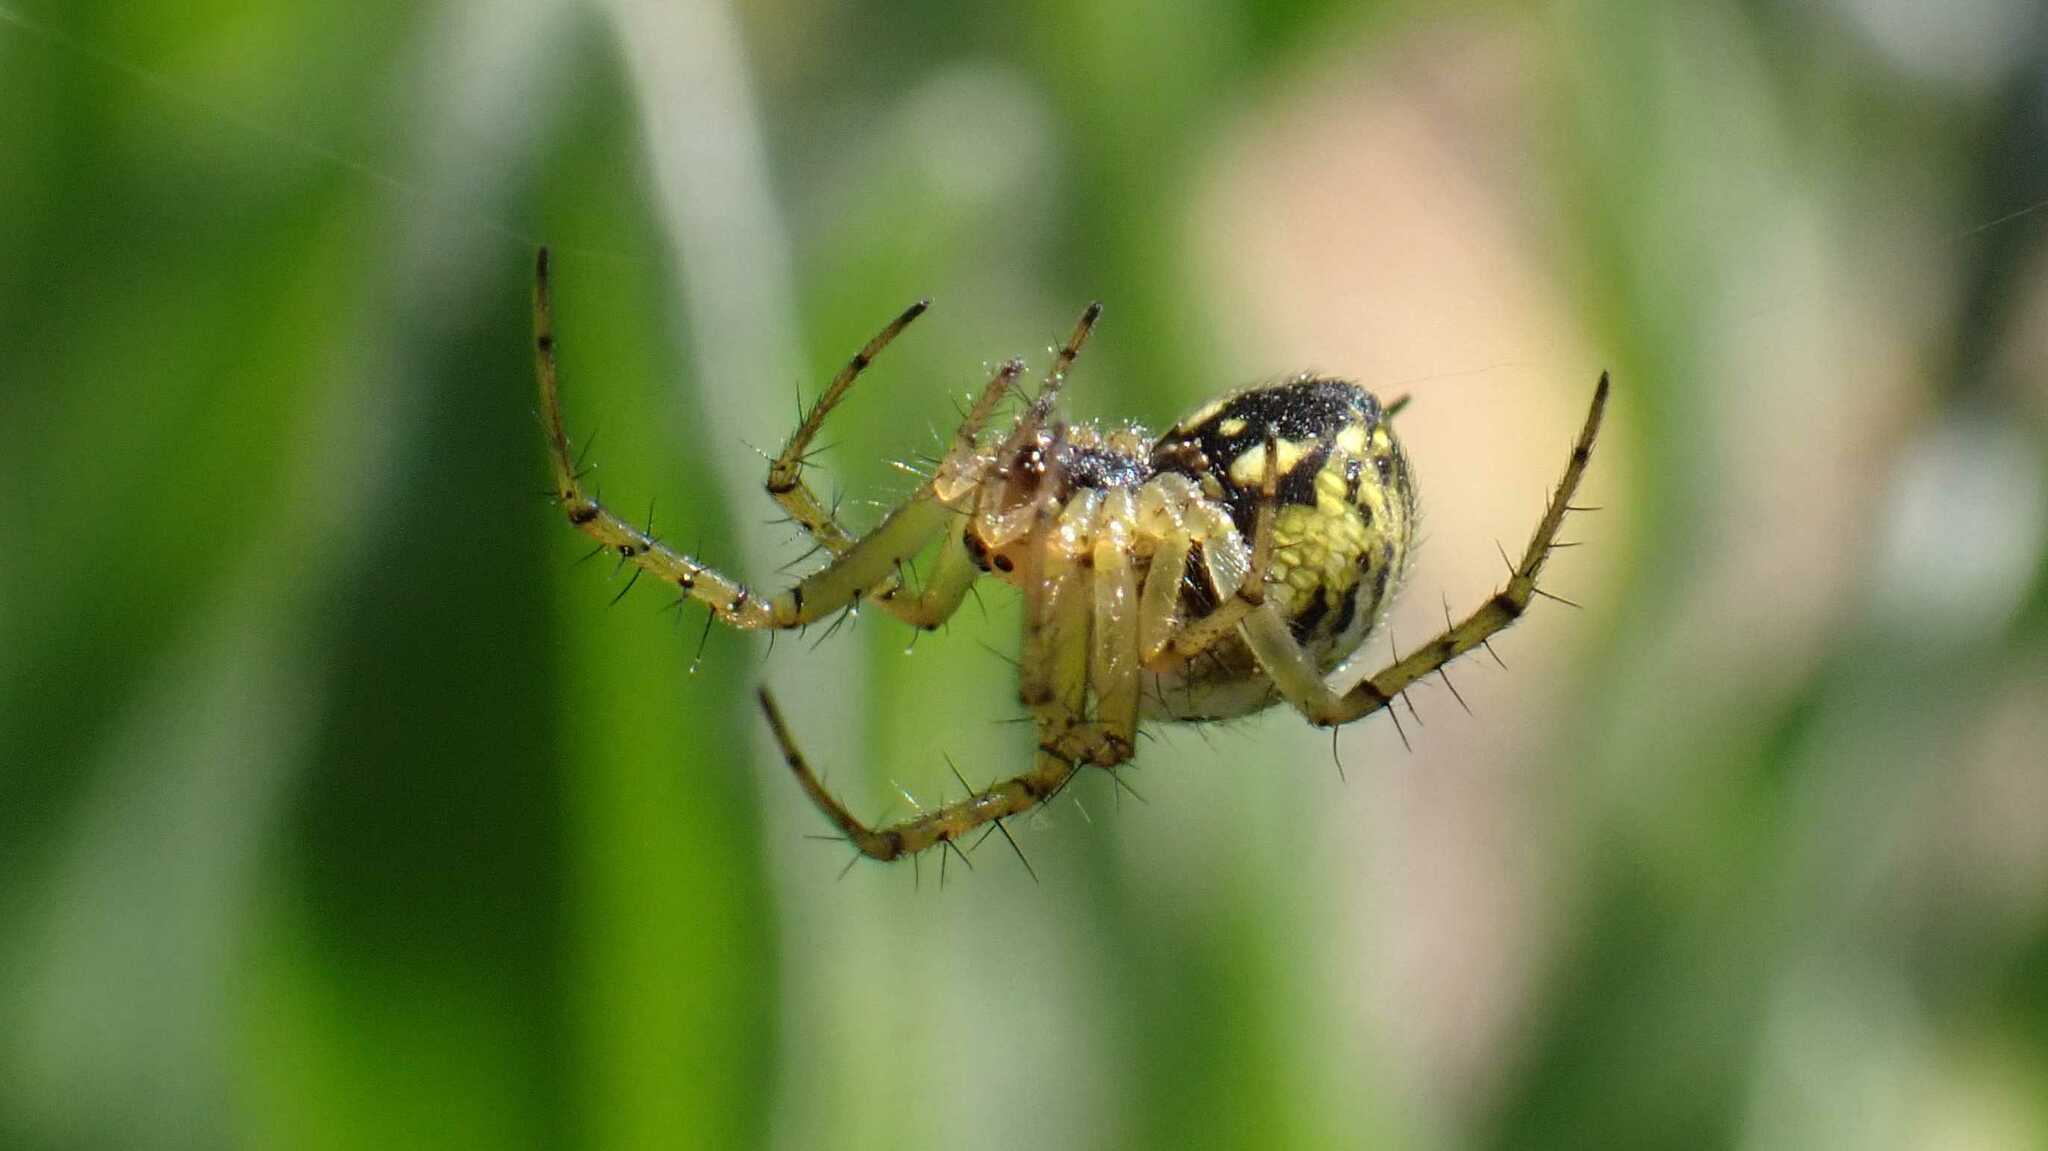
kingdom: Animalia
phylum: Arthropoda
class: Arachnida
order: Araneae
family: Araneidae
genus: Mangora
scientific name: Mangora acalypha
